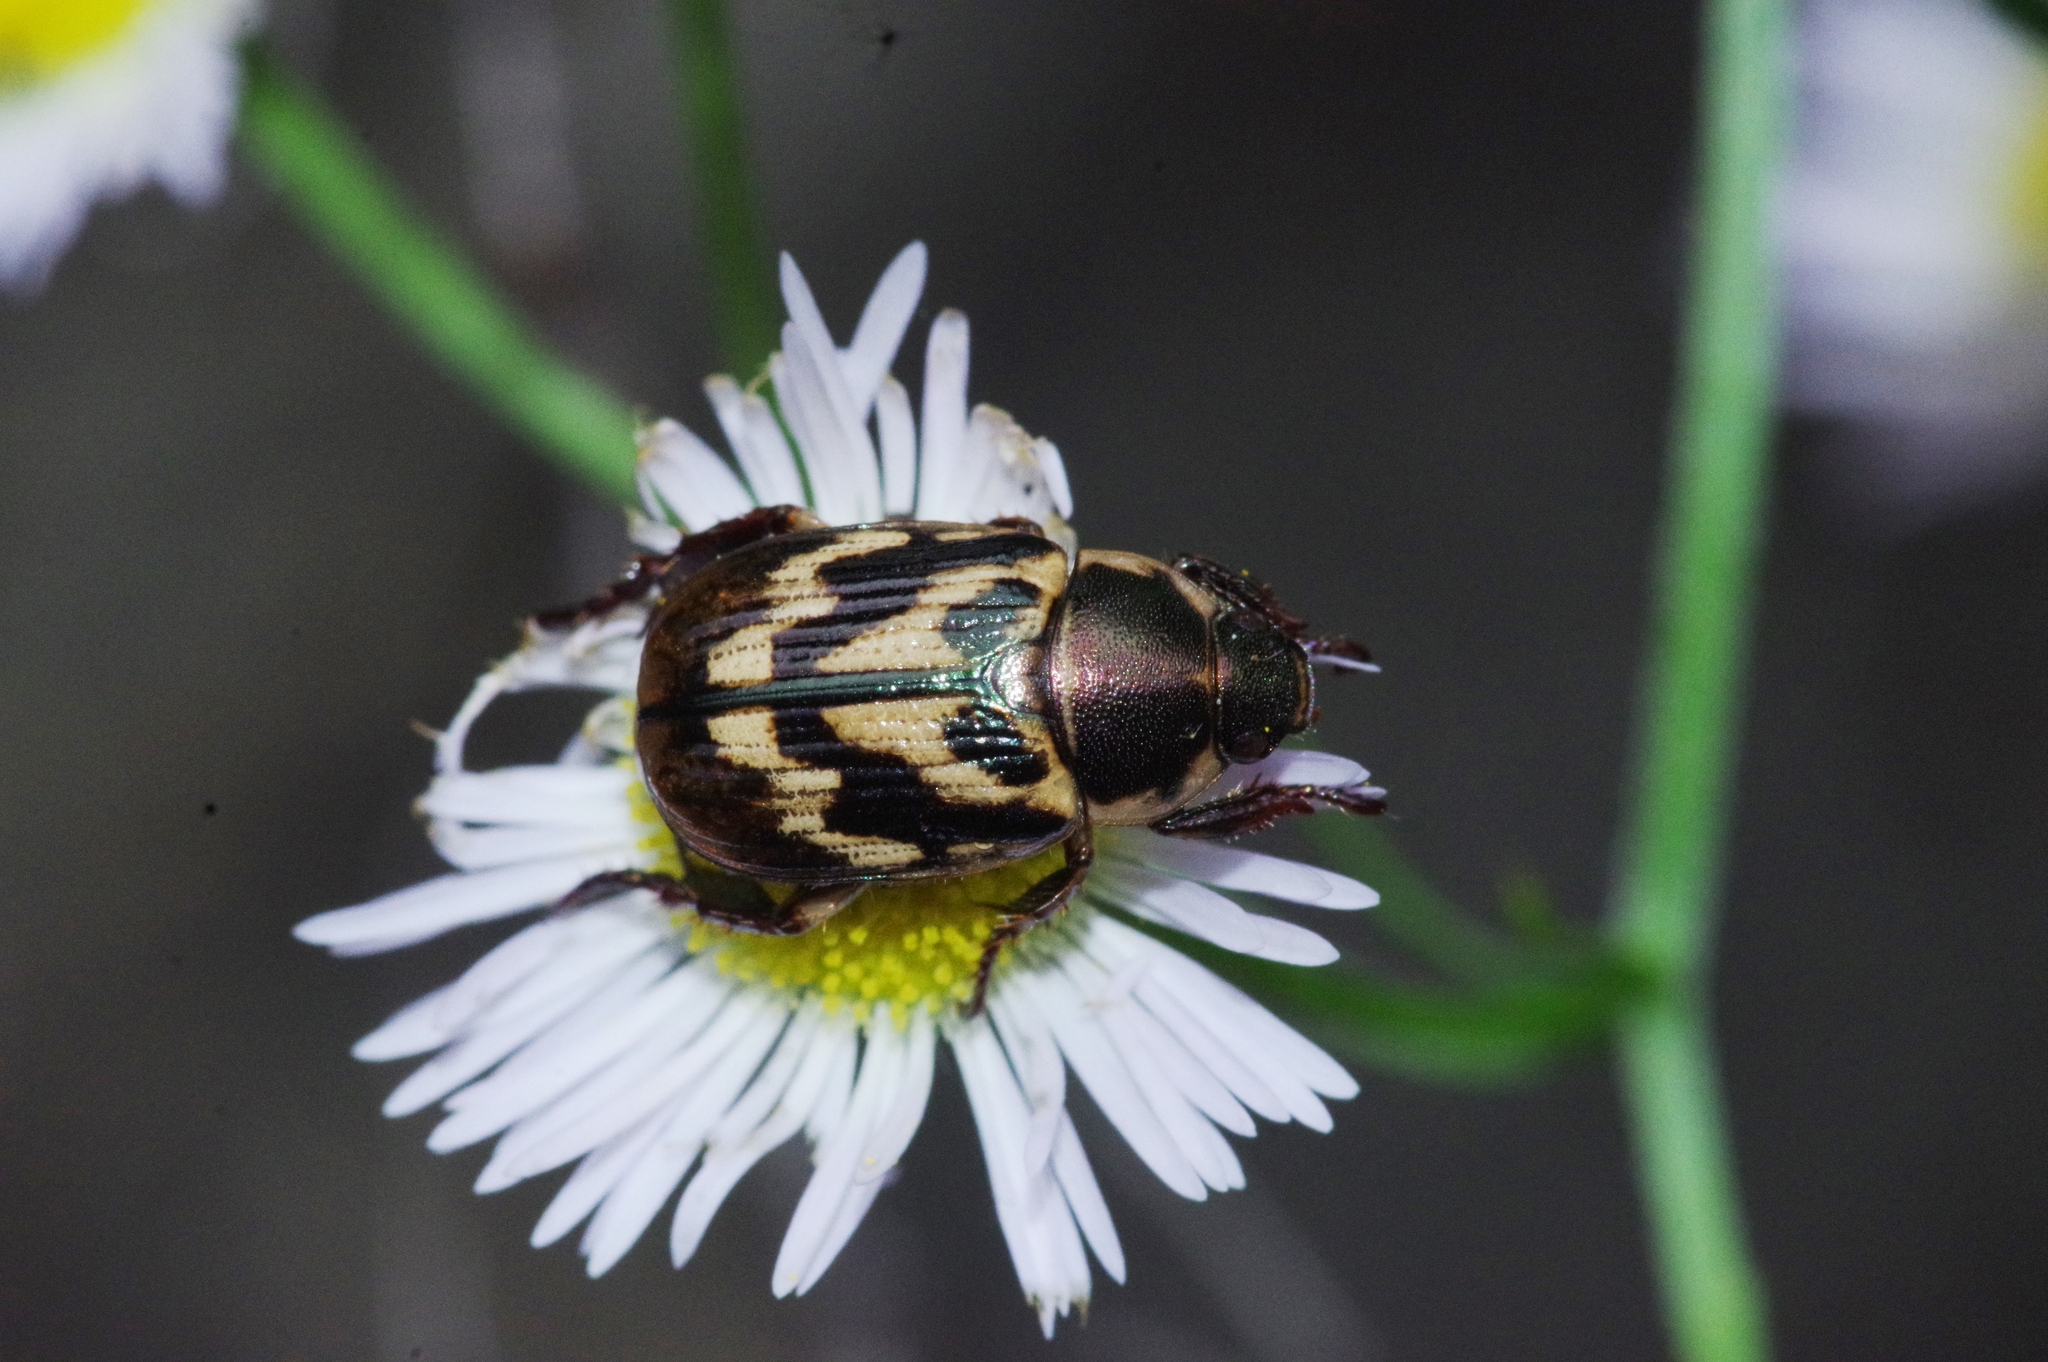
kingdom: Animalia
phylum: Arthropoda
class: Insecta
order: Coleoptera
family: Scarabaeidae
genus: Exomala
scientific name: Exomala orientalis
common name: Oriental beetle
